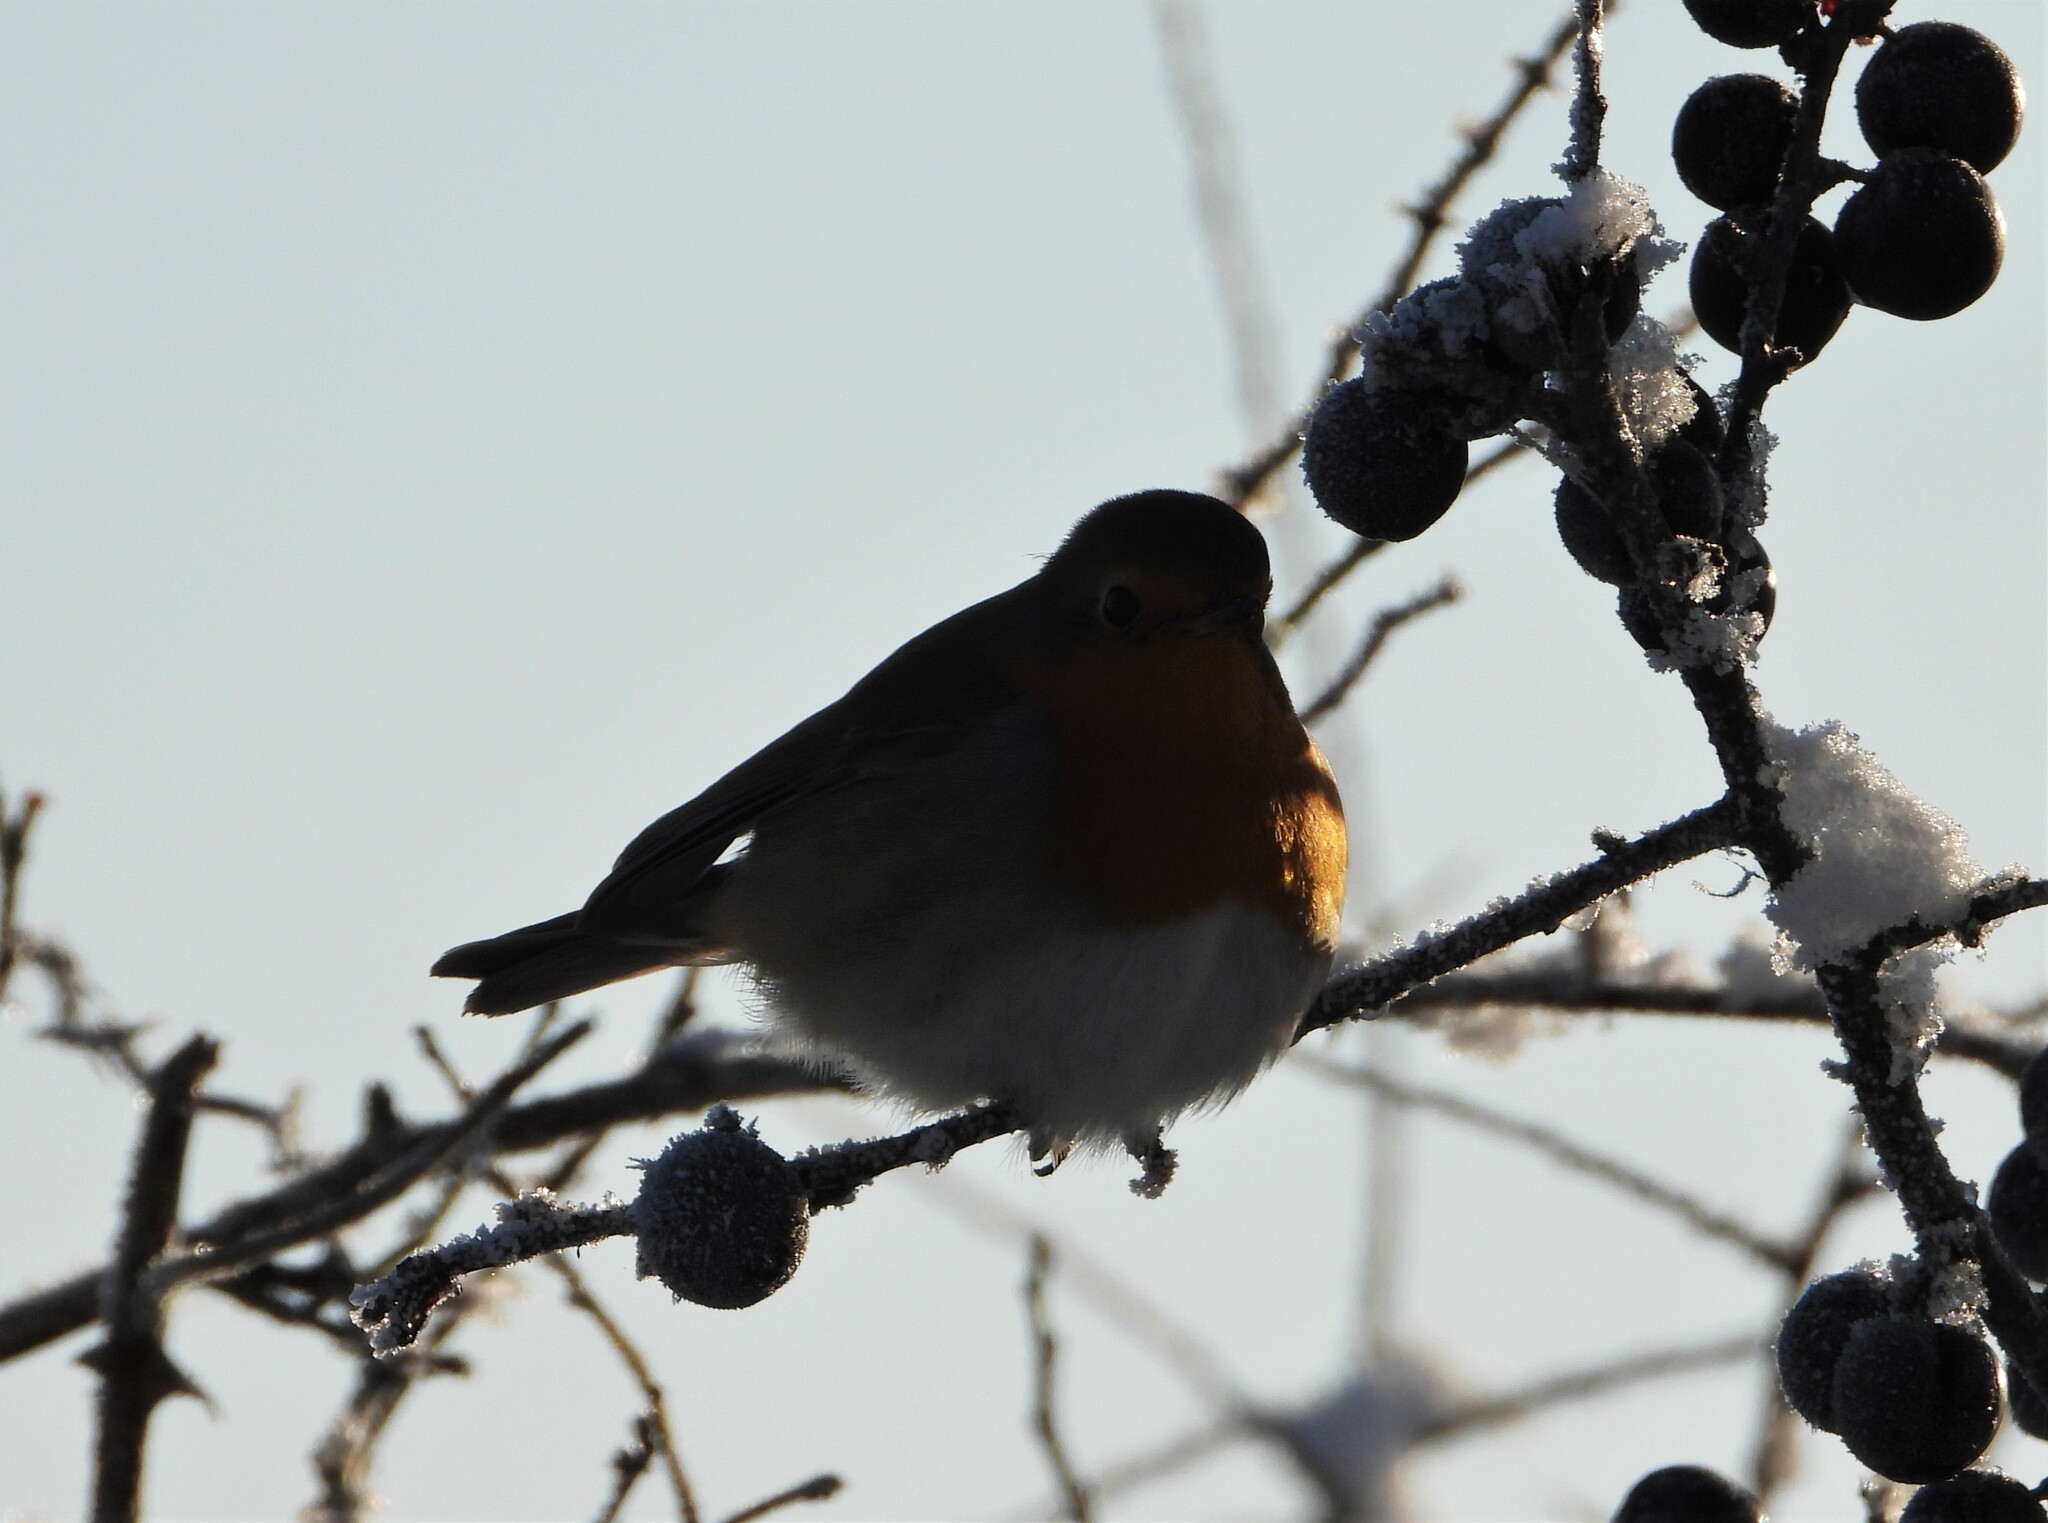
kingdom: Animalia
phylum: Chordata
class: Aves
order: Passeriformes
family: Muscicapidae
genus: Erithacus
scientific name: Erithacus rubecula
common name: European robin
